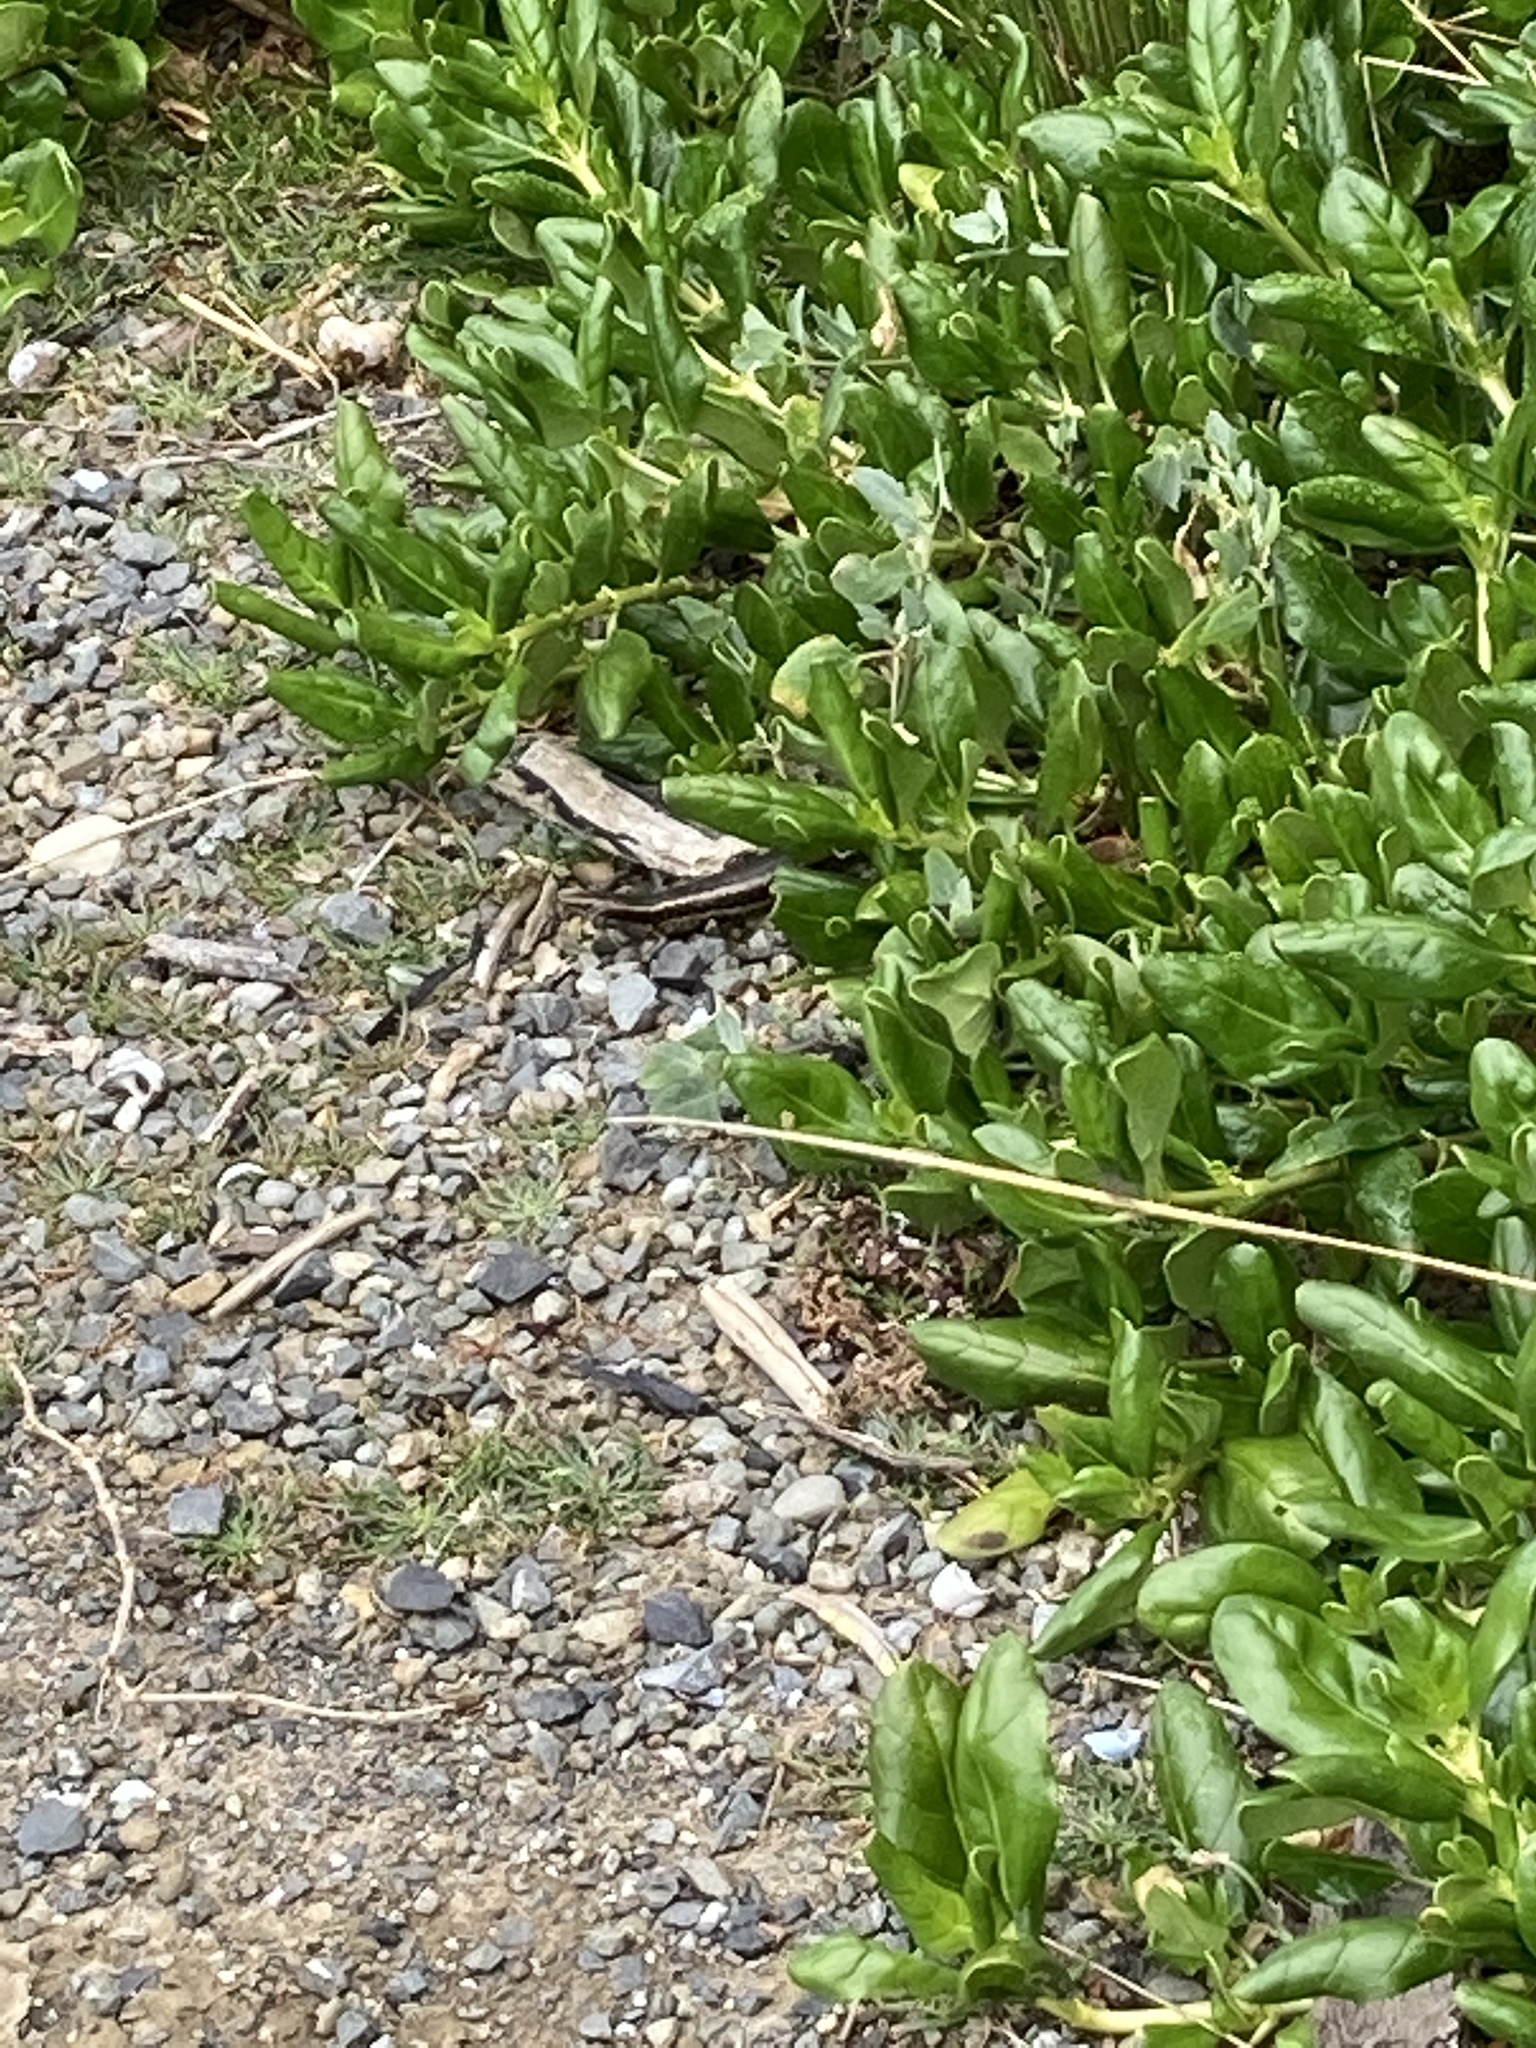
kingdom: Animalia
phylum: Chordata
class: Squamata
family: Scincidae
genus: Oligosoma
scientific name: Oligosoma kokowai
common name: Northern spotted skink
